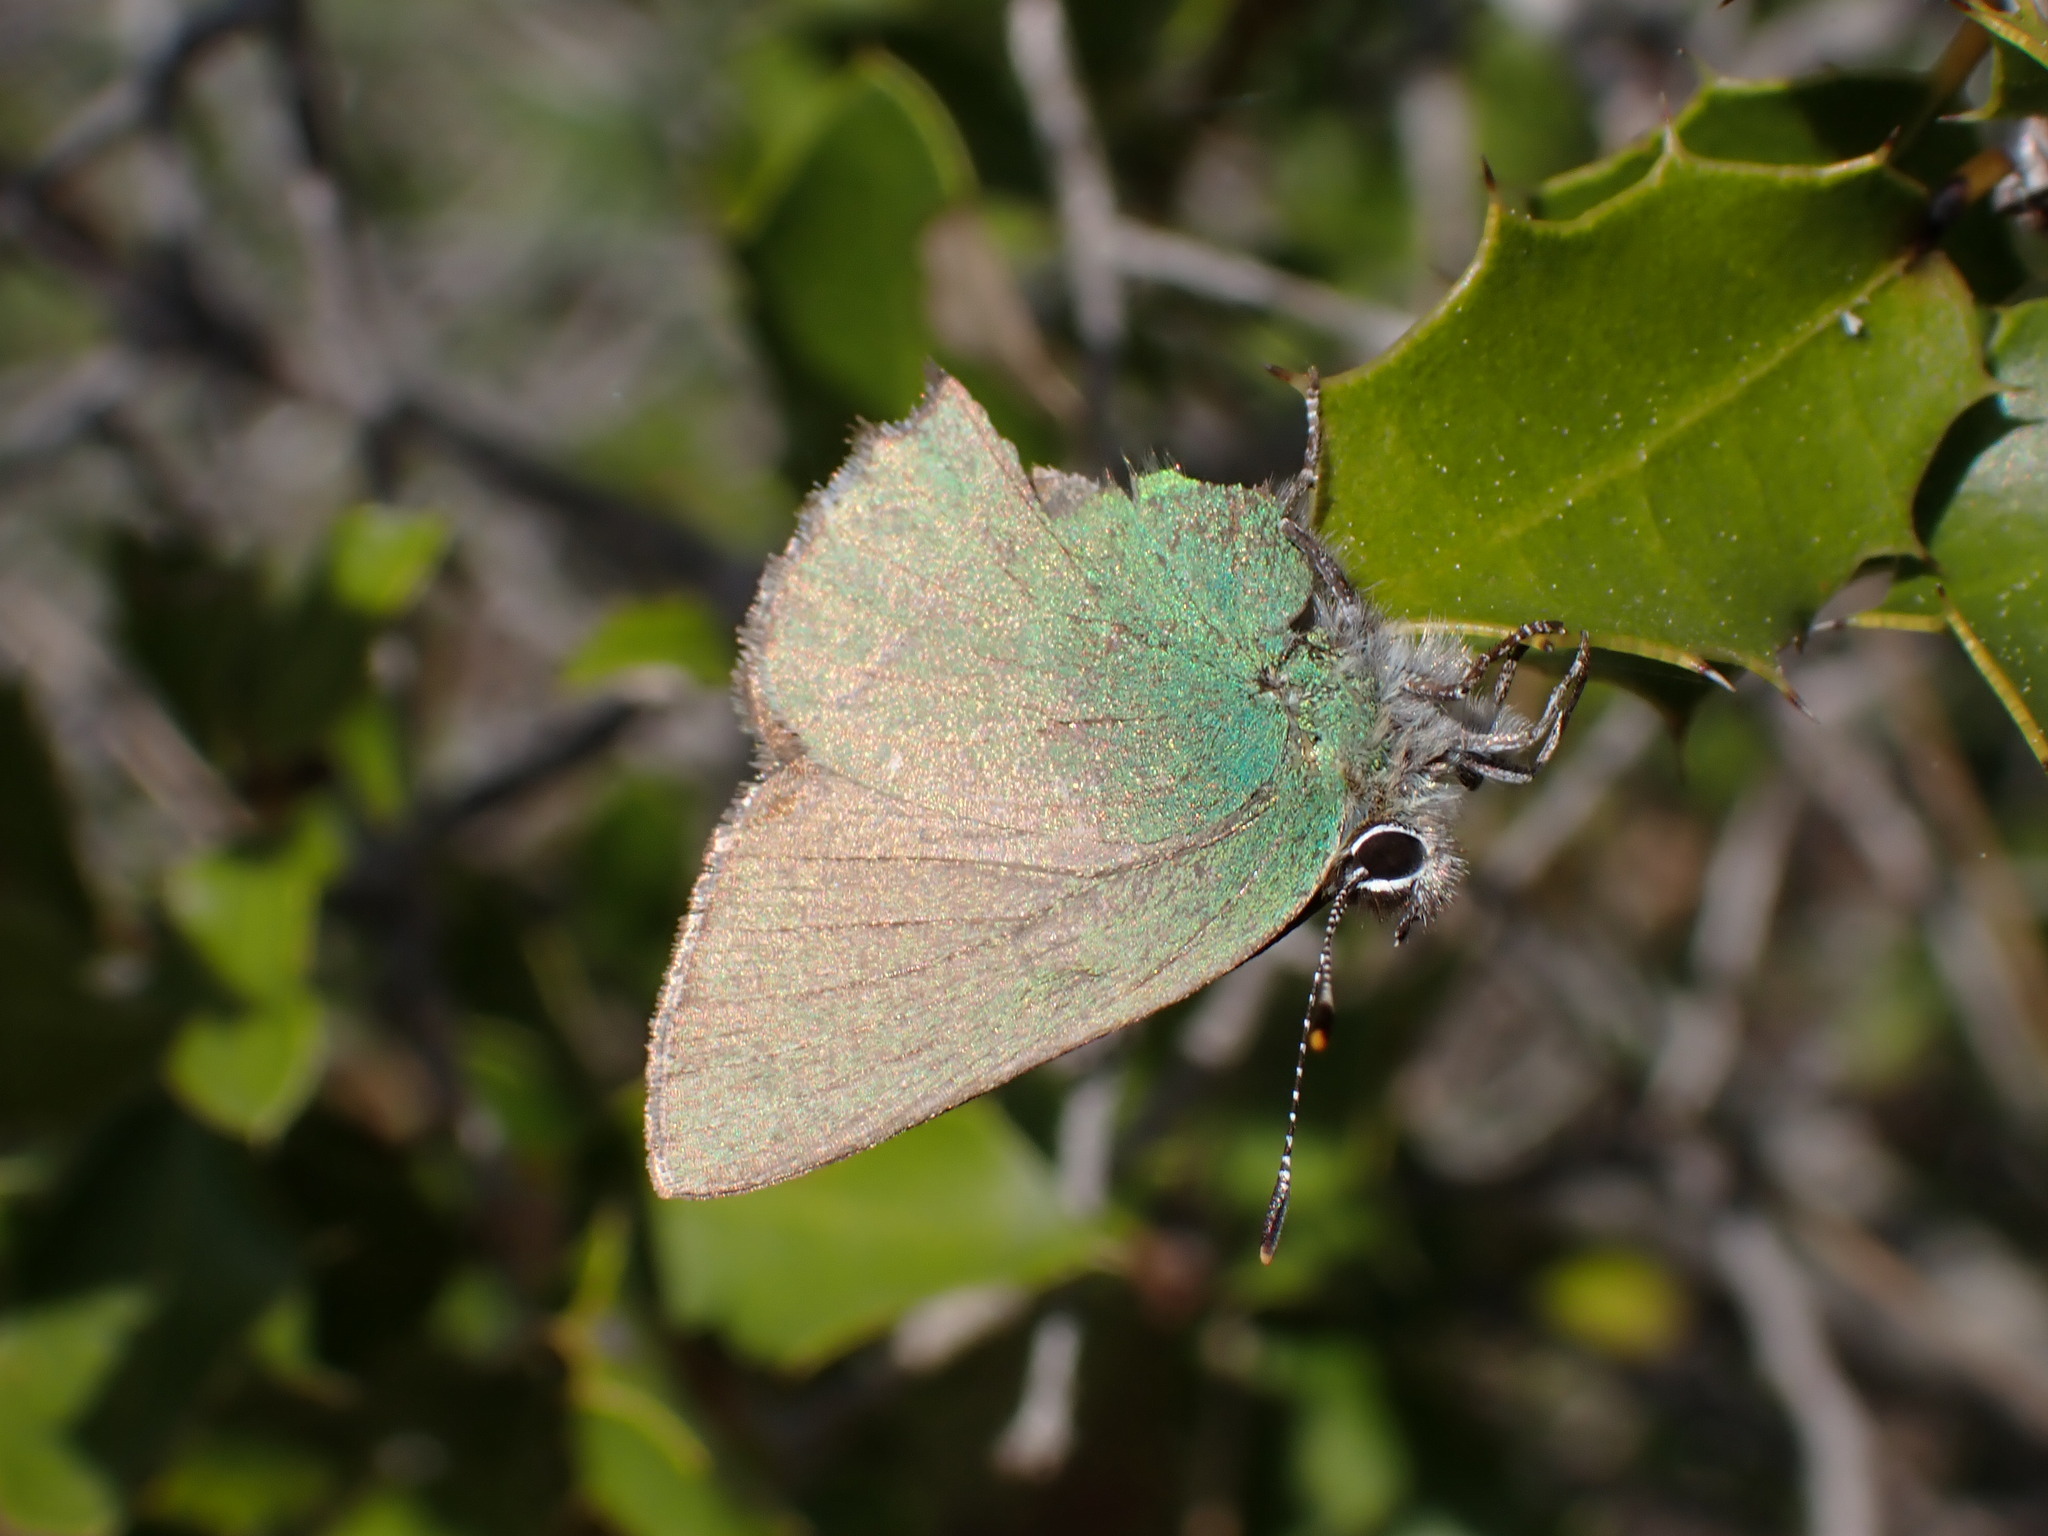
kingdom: Animalia
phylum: Arthropoda
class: Insecta
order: Lepidoptera
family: Lycaenidae
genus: Callophrys
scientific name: Callophrys rubi
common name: Green hairstreak
